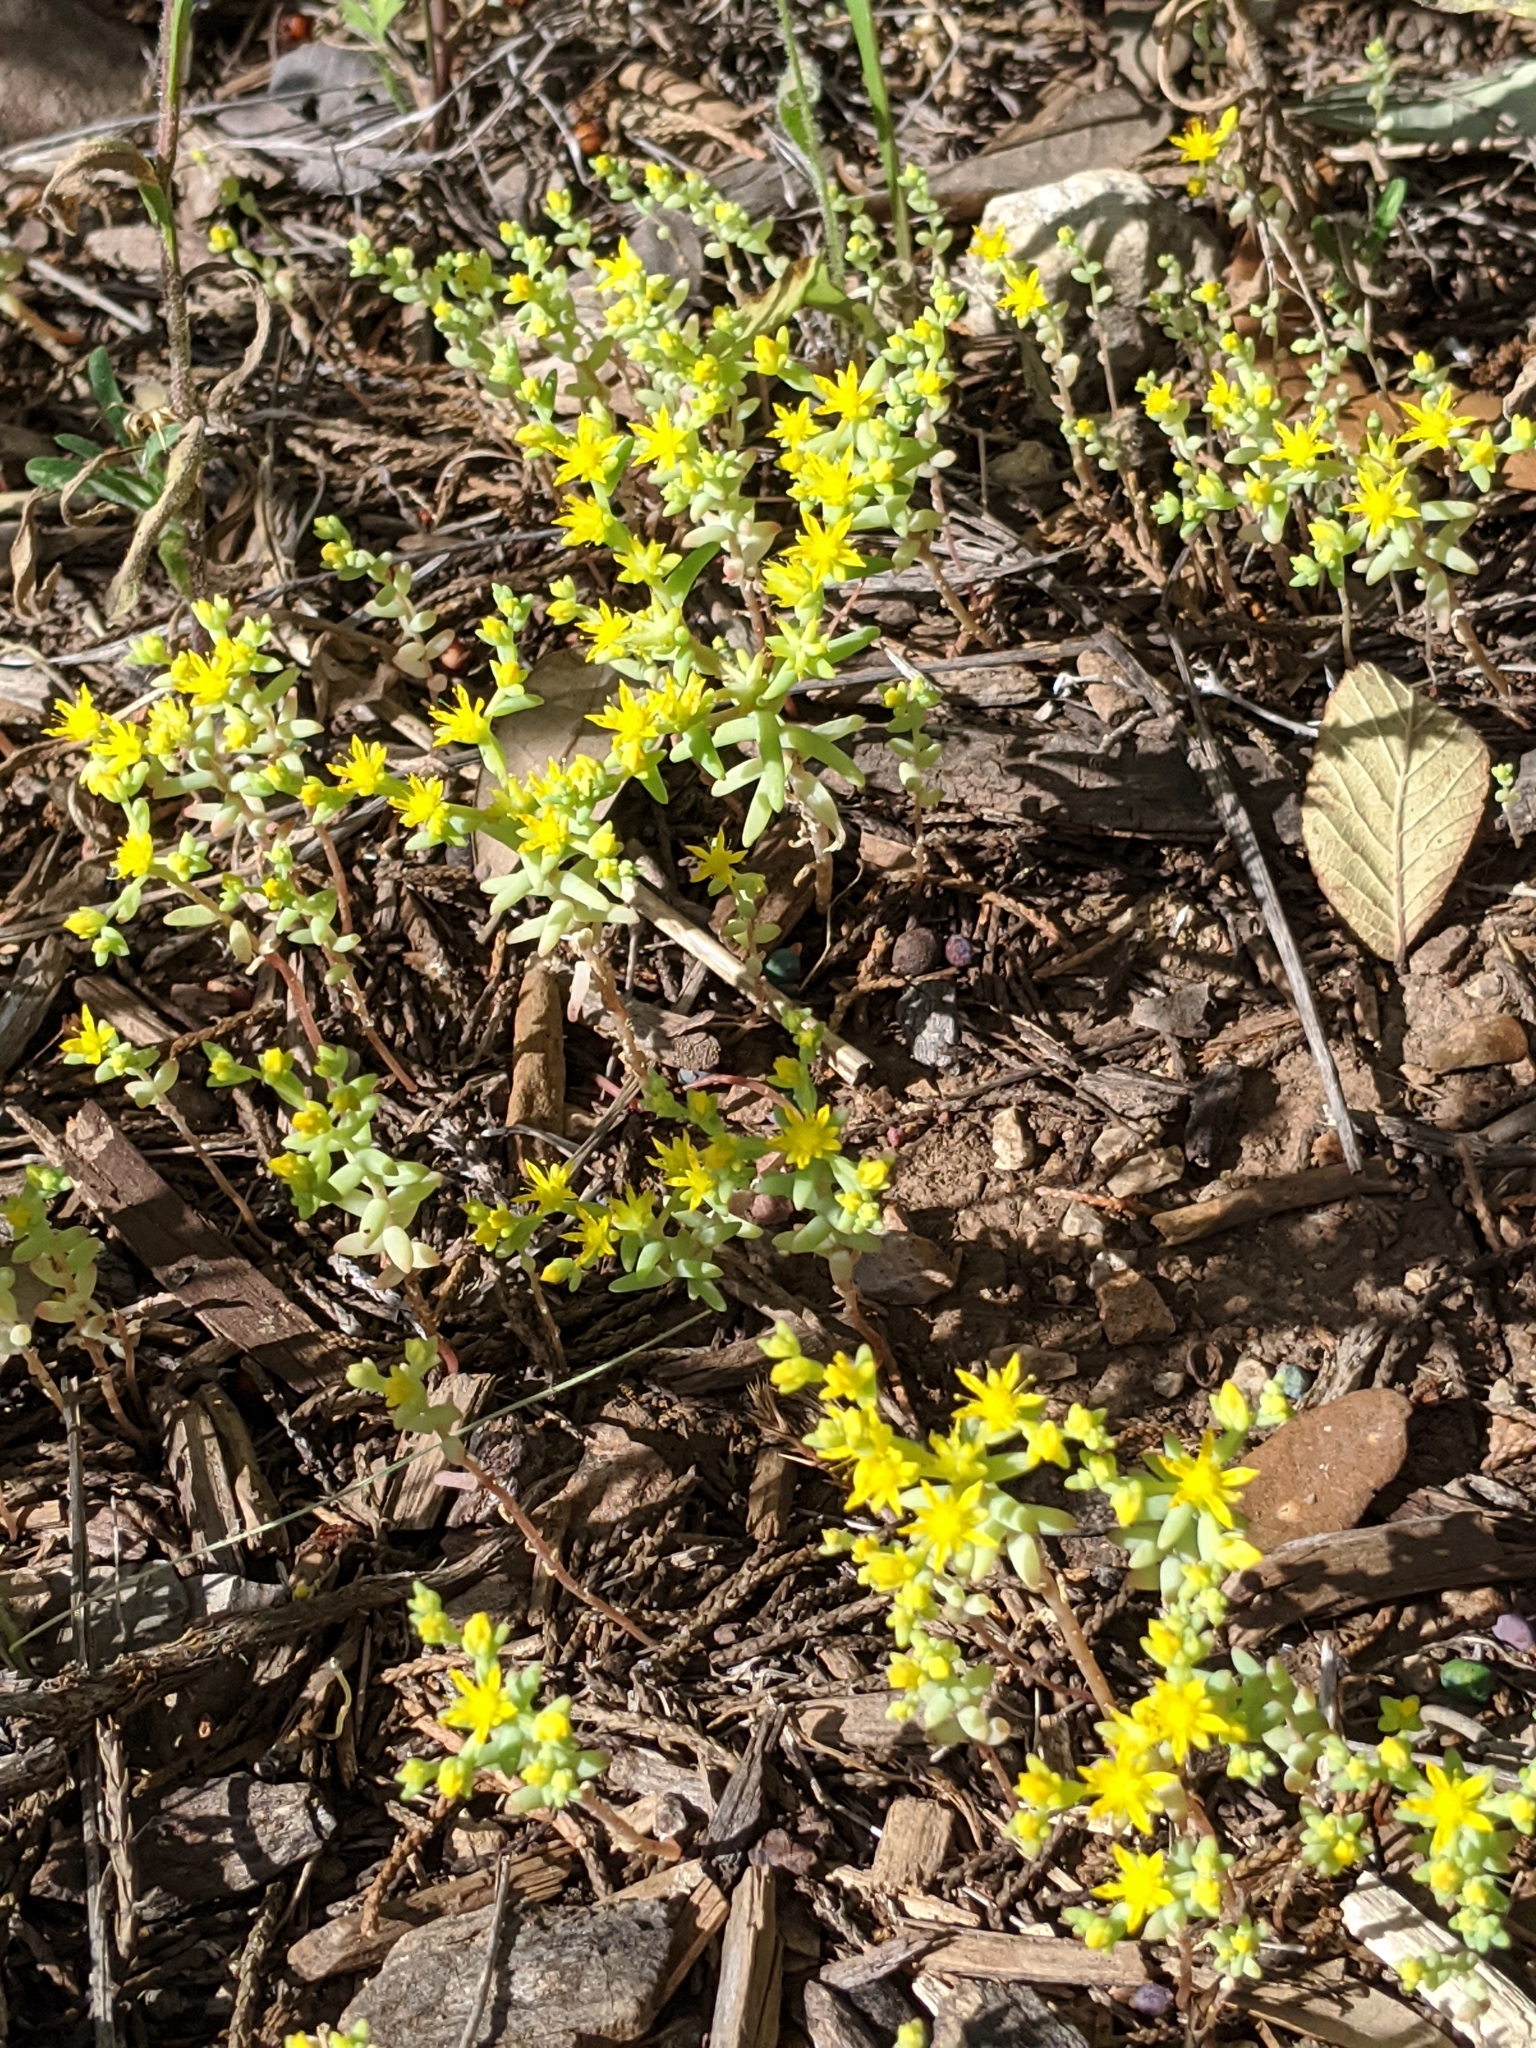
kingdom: Plantae
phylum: Tracheophyta
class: Magnoliopsida
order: Saxifragales
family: Crassulaceae
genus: Sedum
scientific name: Sedum nuttallii
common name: Yellow stonecrop
